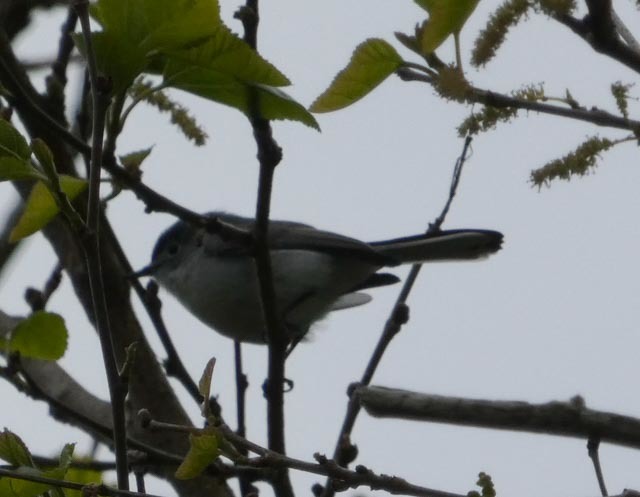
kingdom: Animalia
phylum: Chordata
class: Aves
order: Passeriformes
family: Polioptilidae
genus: Polioptila
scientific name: Polioptila caerulea
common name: Blue-gray gnatcatcher
